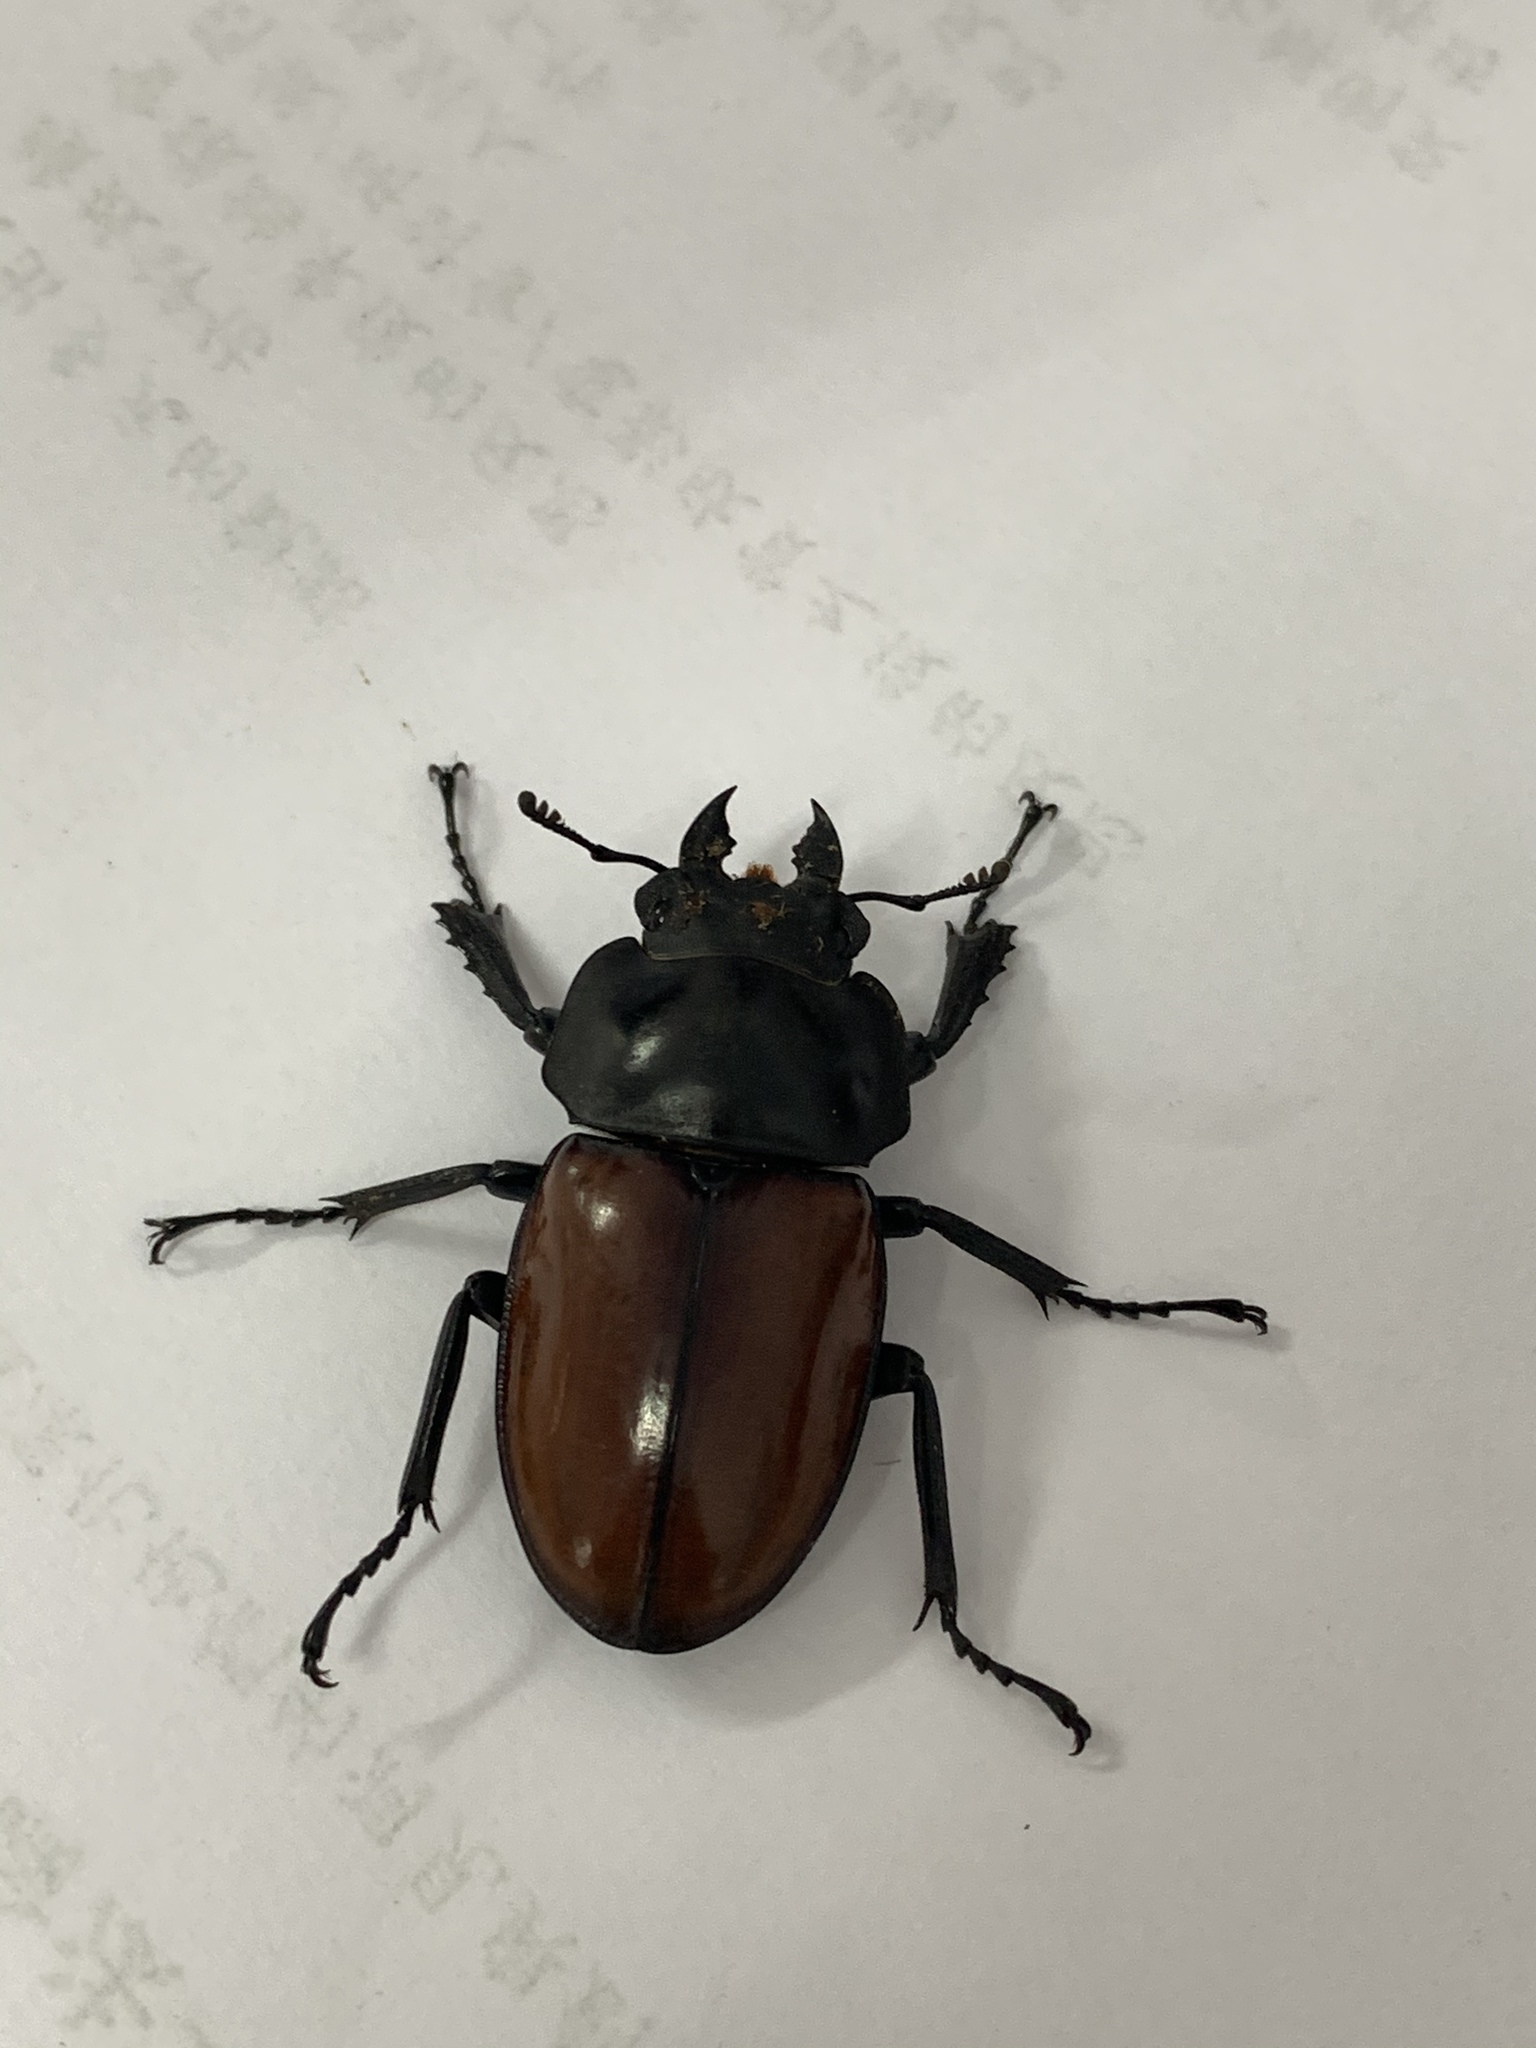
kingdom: Animalia
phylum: Arthropoda
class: Insecta
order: Coleoptera
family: Lucanidae
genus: Neolucanus
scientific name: Neolucanus swinhoei
